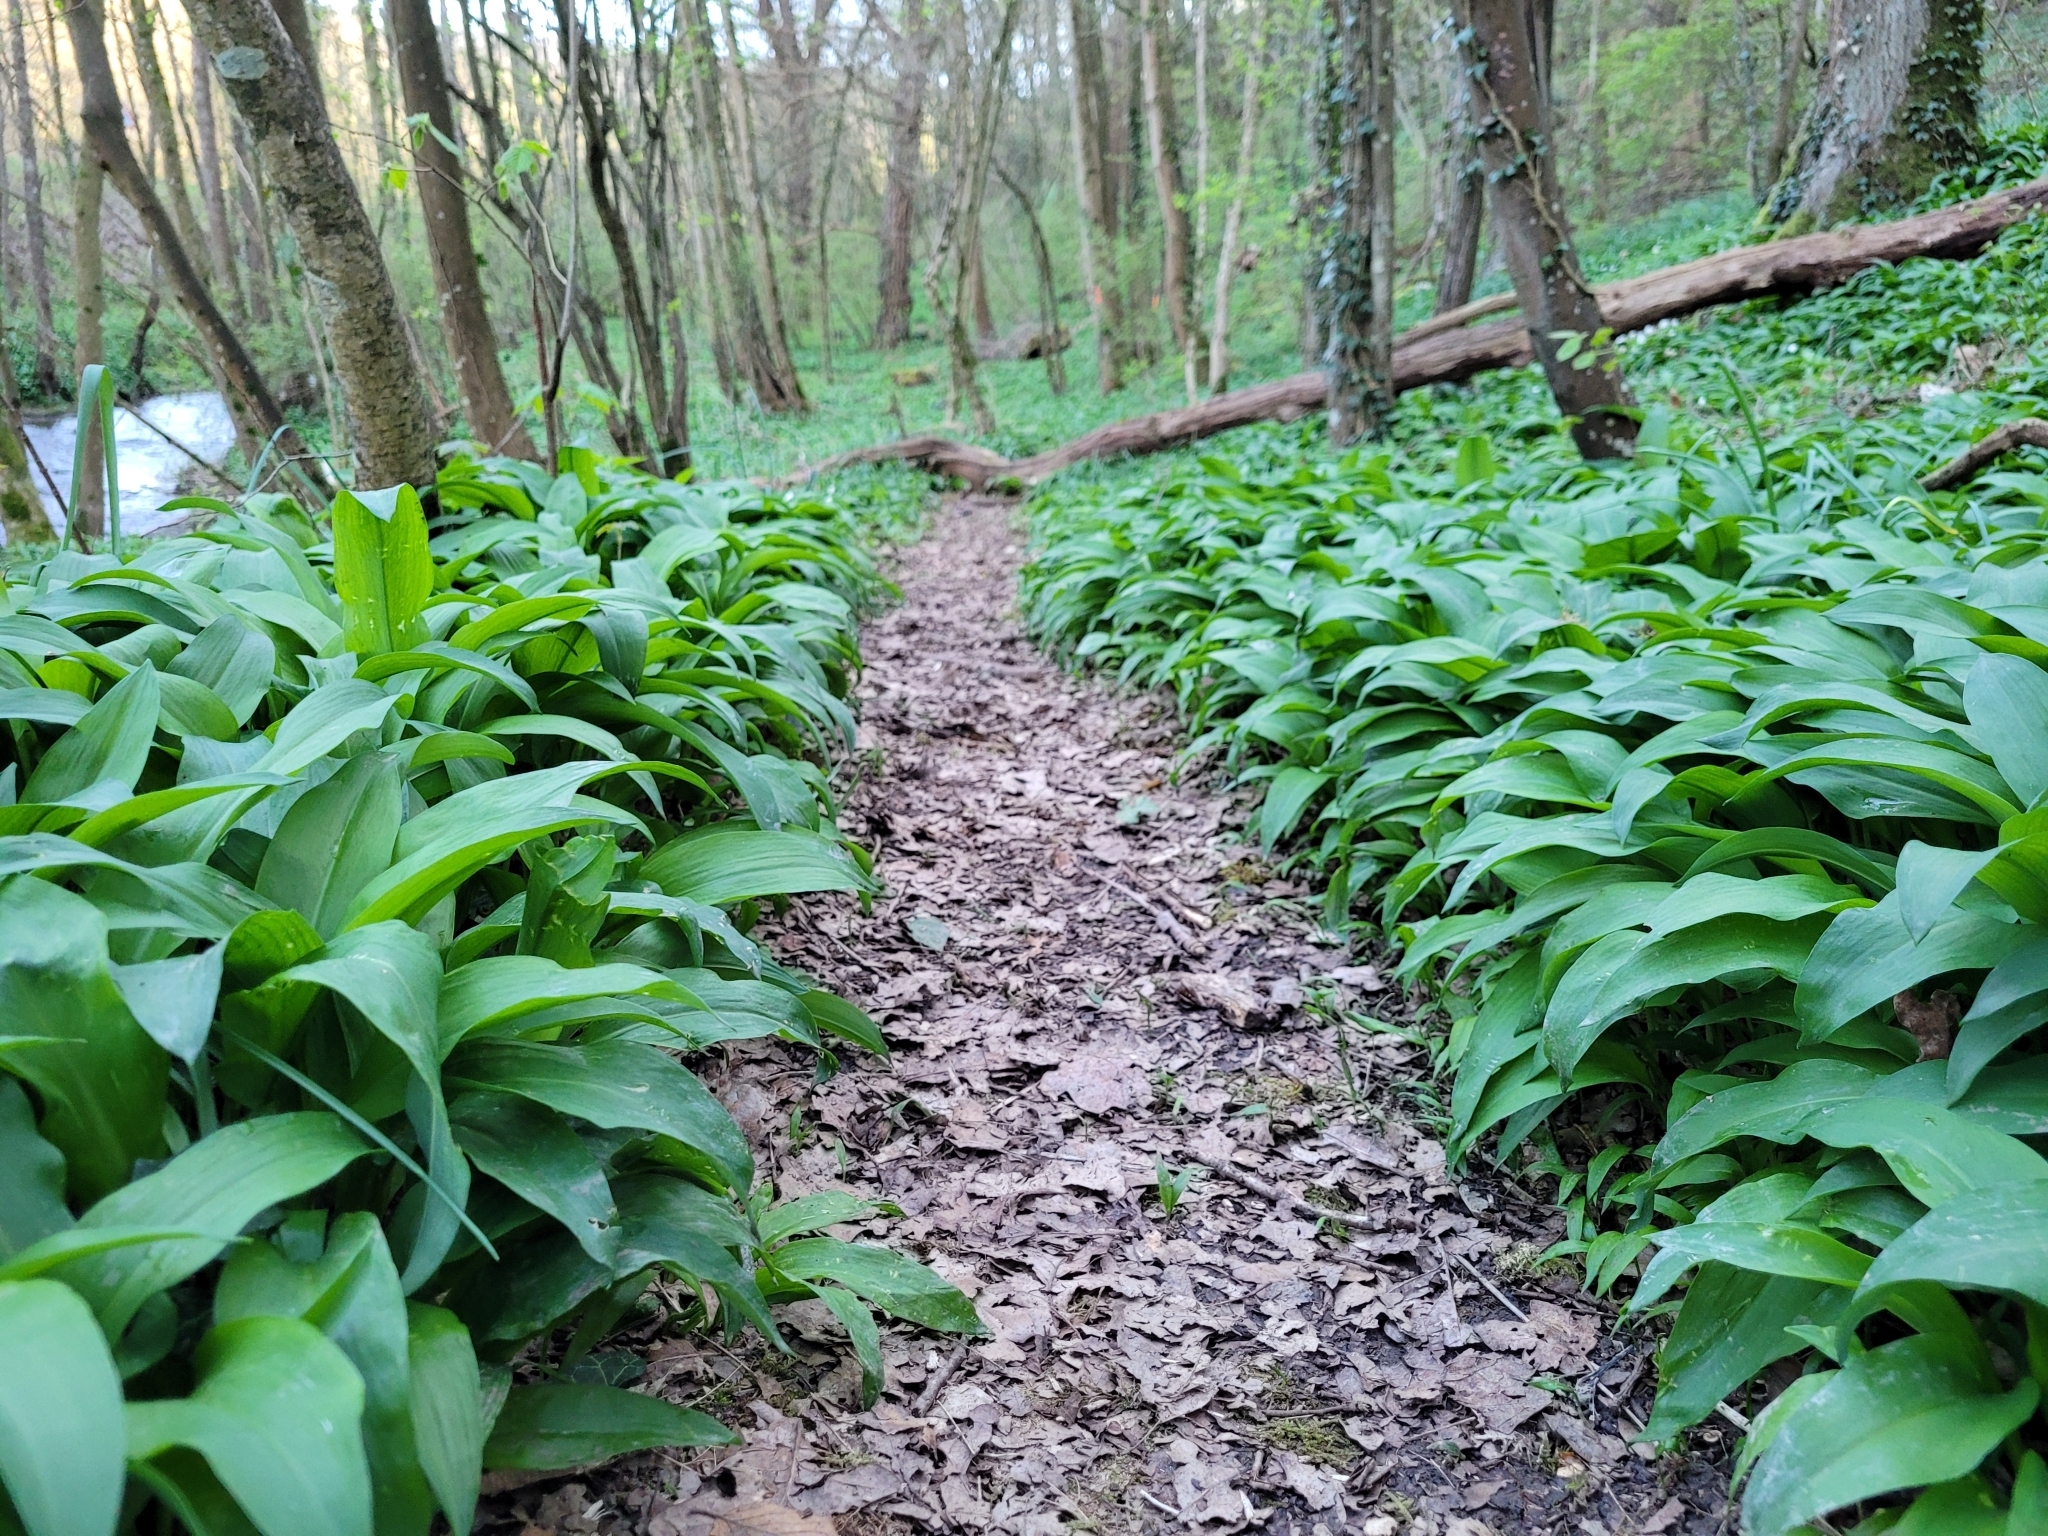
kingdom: Plantae
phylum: Tracheophyta
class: Liliopsida
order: Asparagales
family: Amaryllidaceae
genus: Allium
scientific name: Allium ursinum
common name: Ramsons
